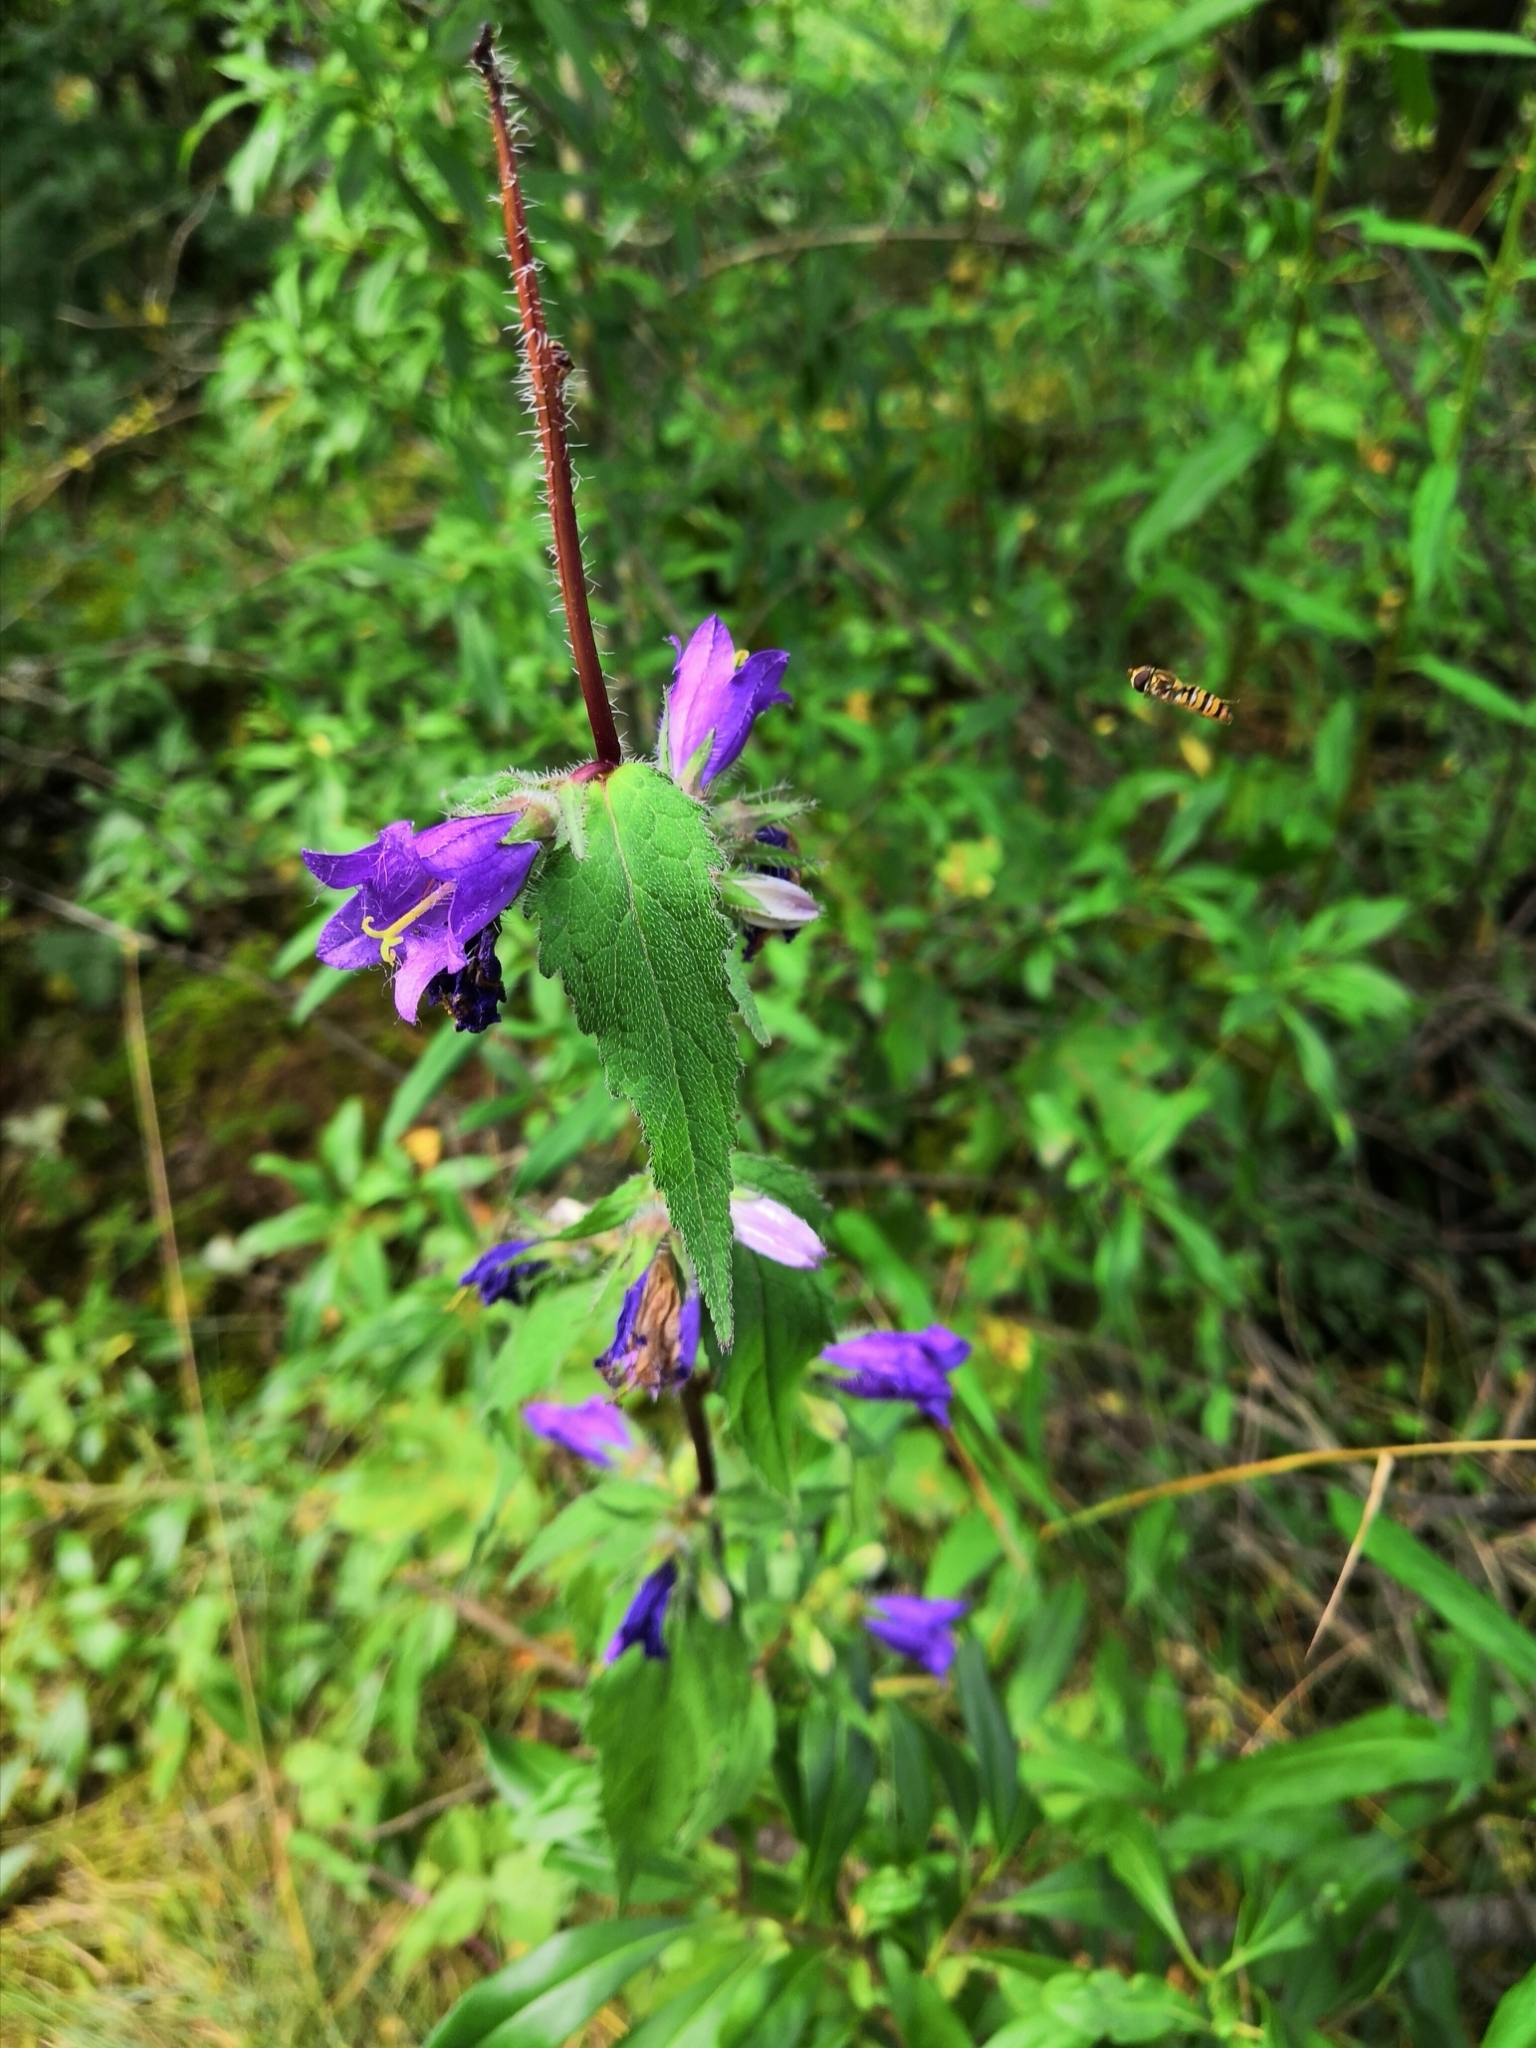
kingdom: Plantae
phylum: Tracheophyta
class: Magnoliopsida
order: Asterales
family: Campanulaceae
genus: Campanula
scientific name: Campanula trachelium
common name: Nettle-leaved bellflower
